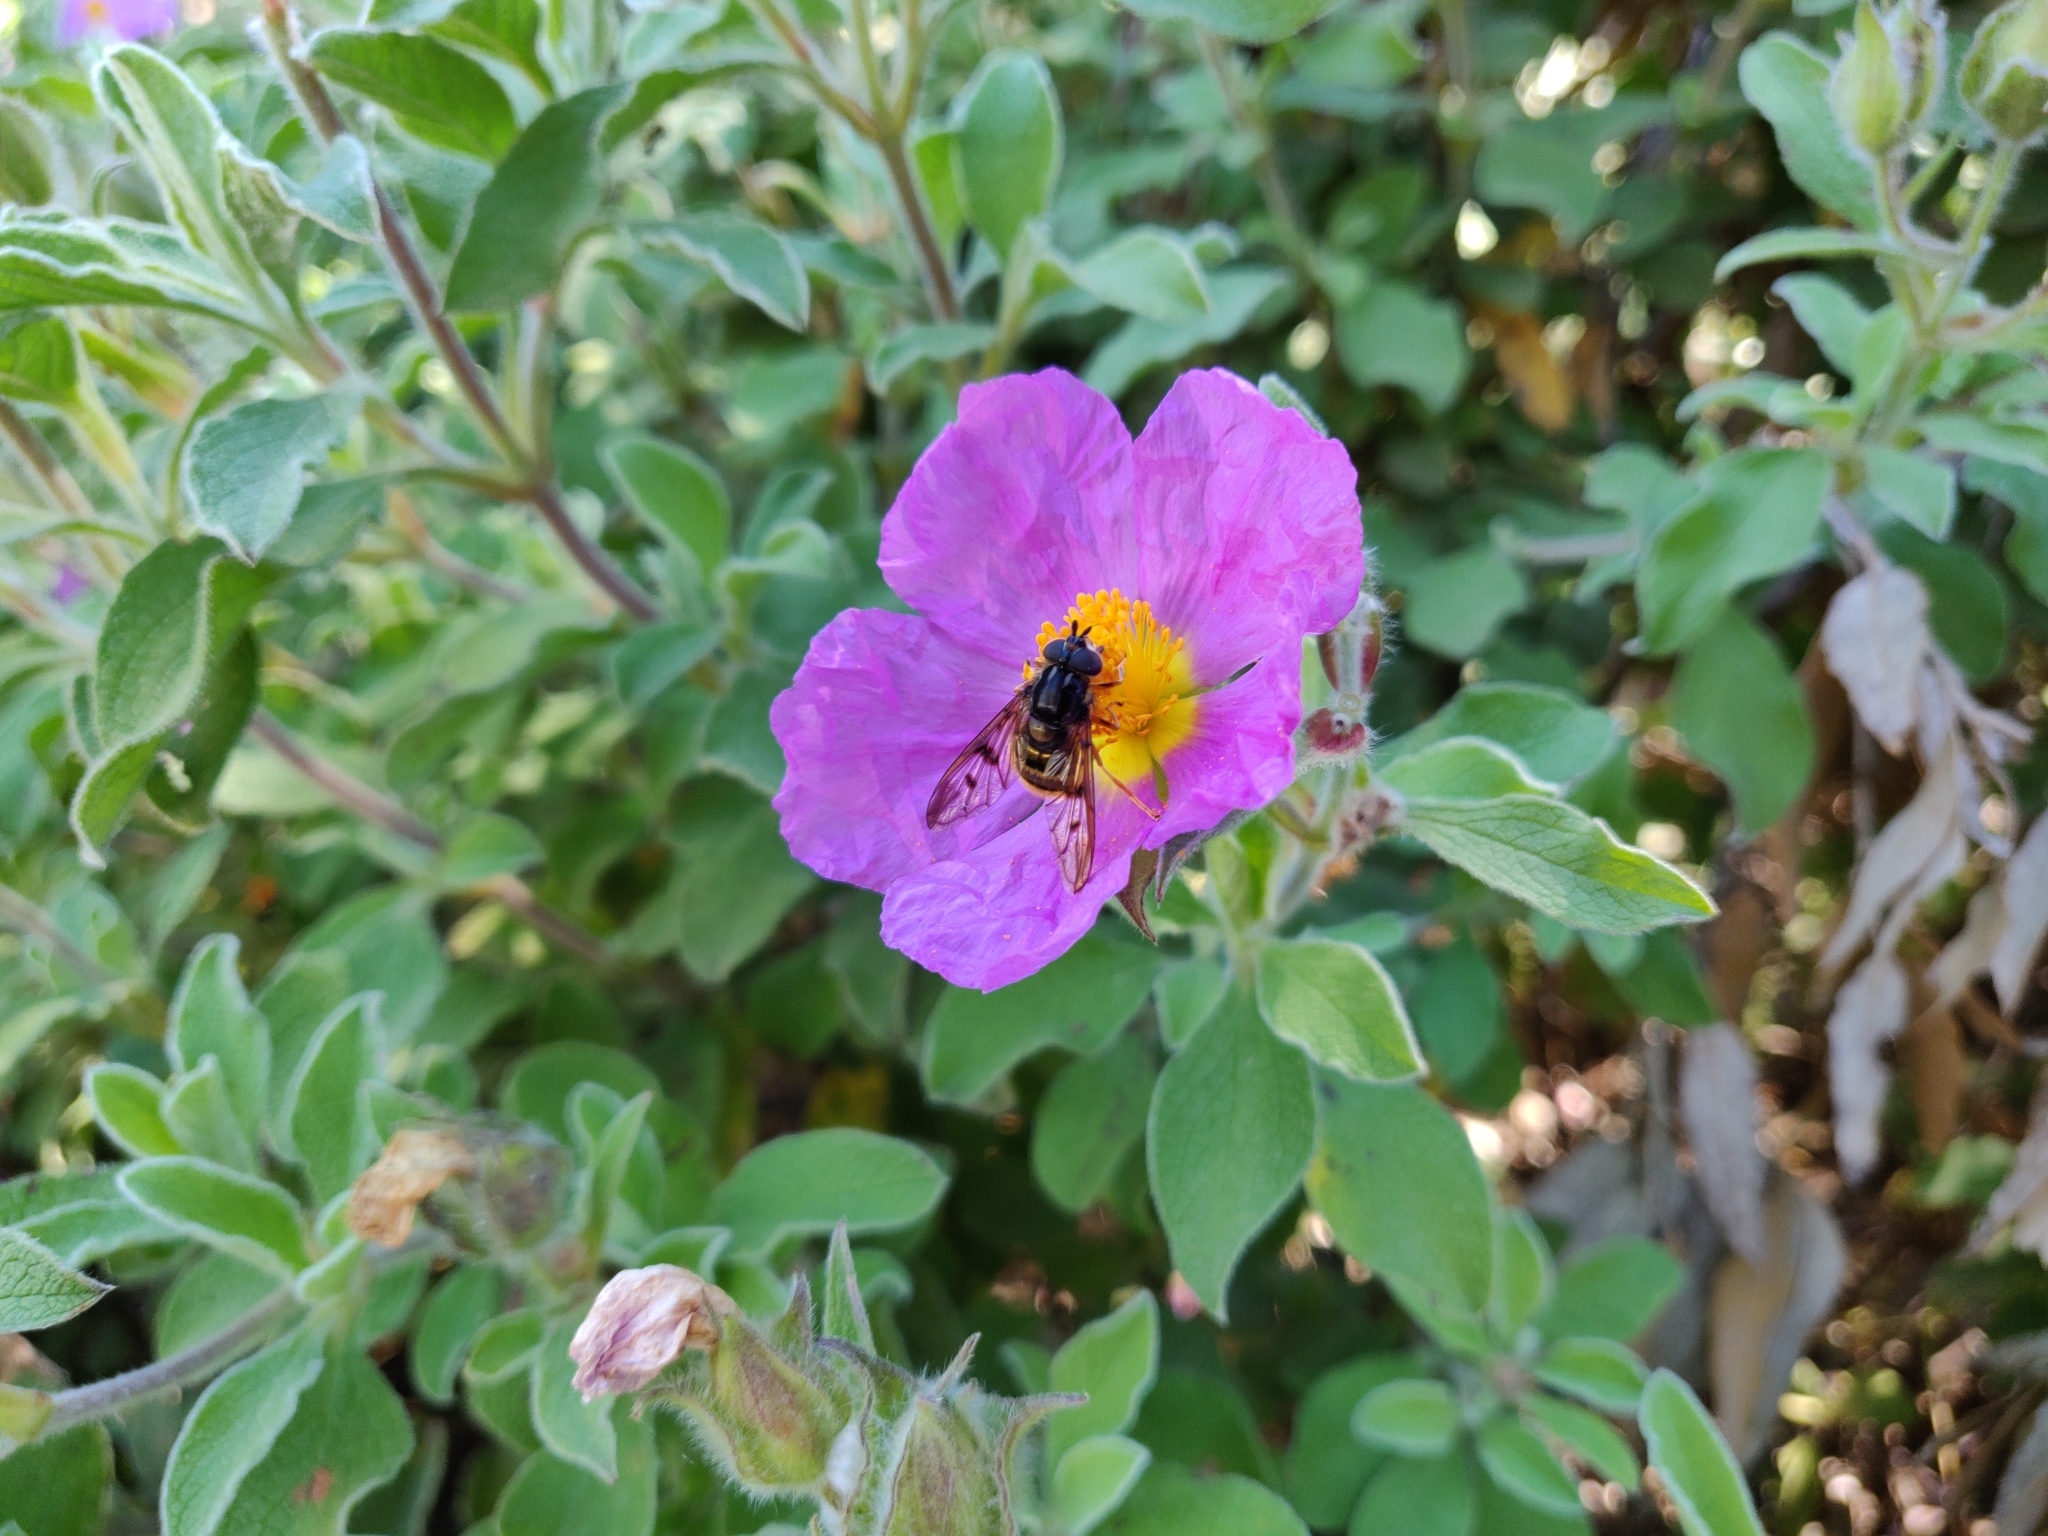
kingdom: Animalia
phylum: Arthropoda
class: Insecta
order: Diptera
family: Syrphidae
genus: Ferdinandea
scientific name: Ferdinandea fumipennis
